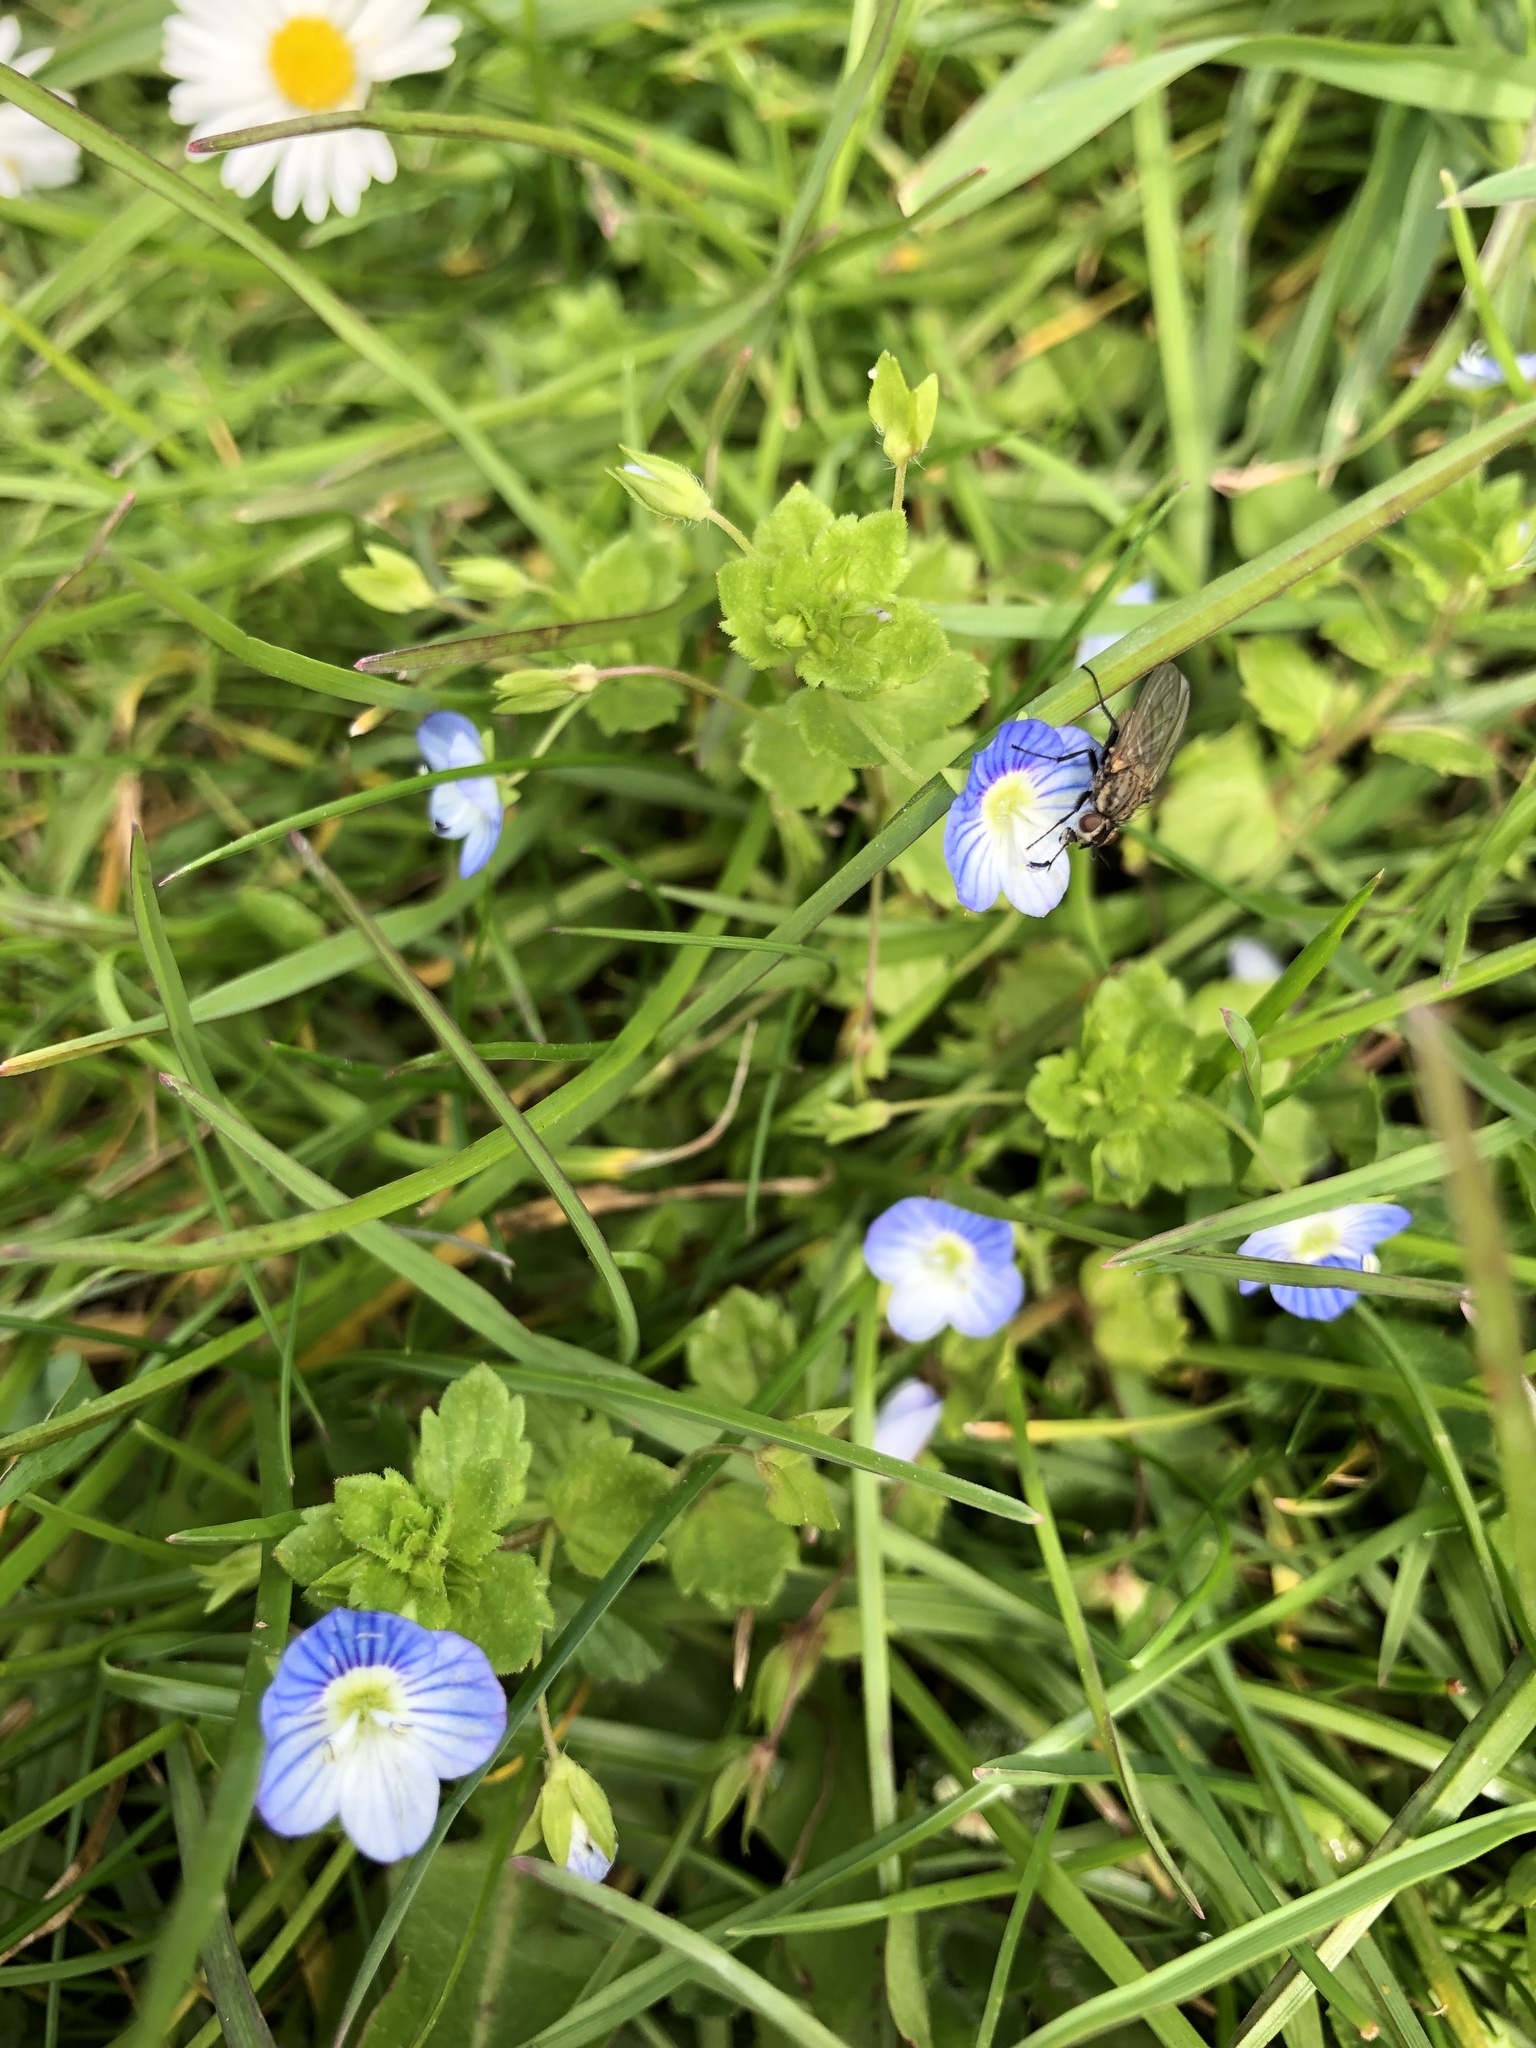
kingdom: Plantae
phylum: Tracheophyta
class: Magnoliopsida
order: Lamiales
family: Plantaginaceae
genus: Veronica
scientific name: Veronica persica
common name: Common field-speedwell
